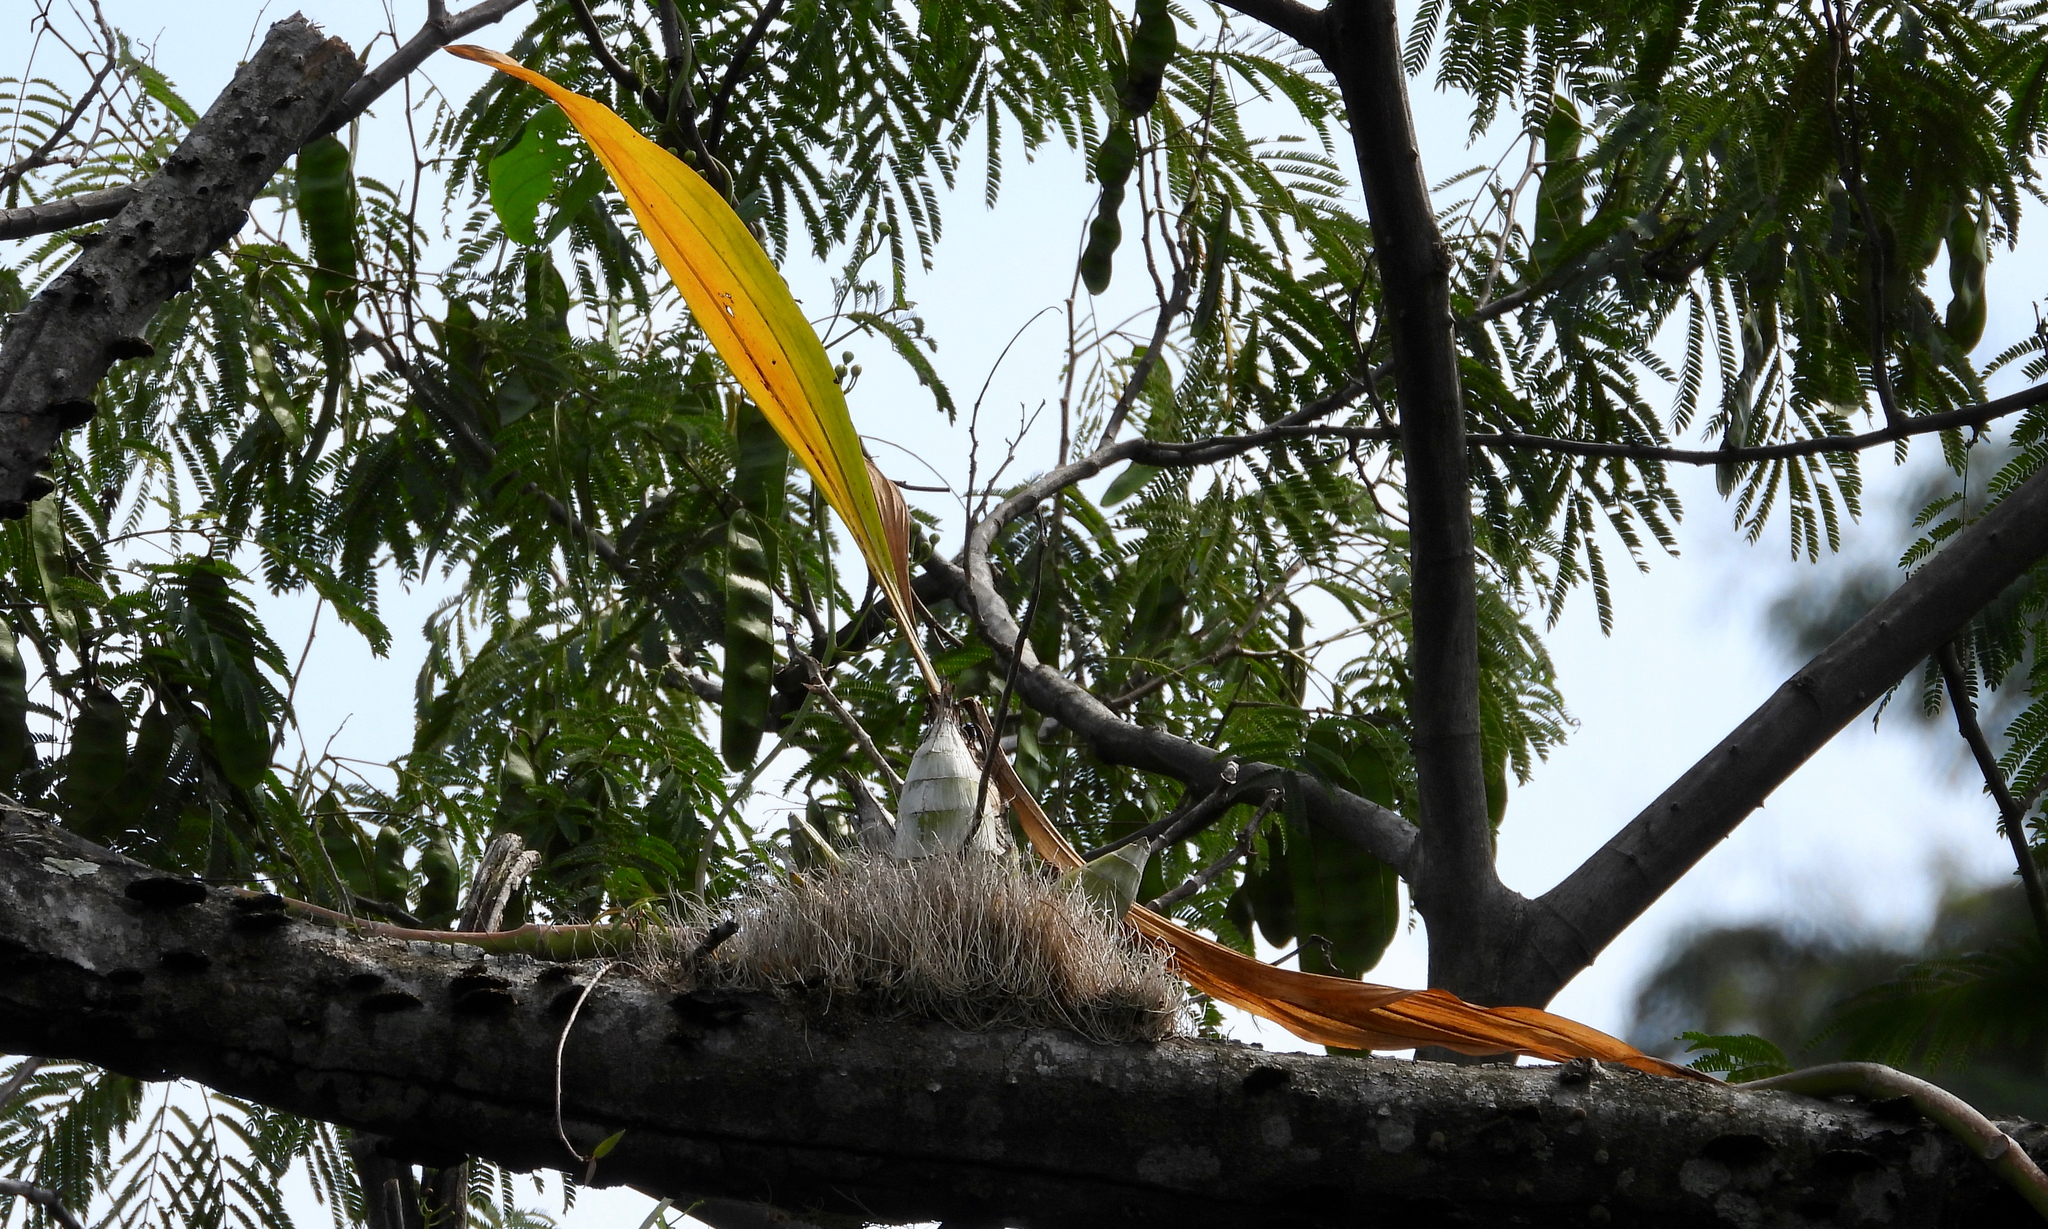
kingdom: Plantae
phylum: Tracheophyta
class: Liliopsida
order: Asparagales
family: Orchidaceae
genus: Catasetum
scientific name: Catasetum integerrimum
